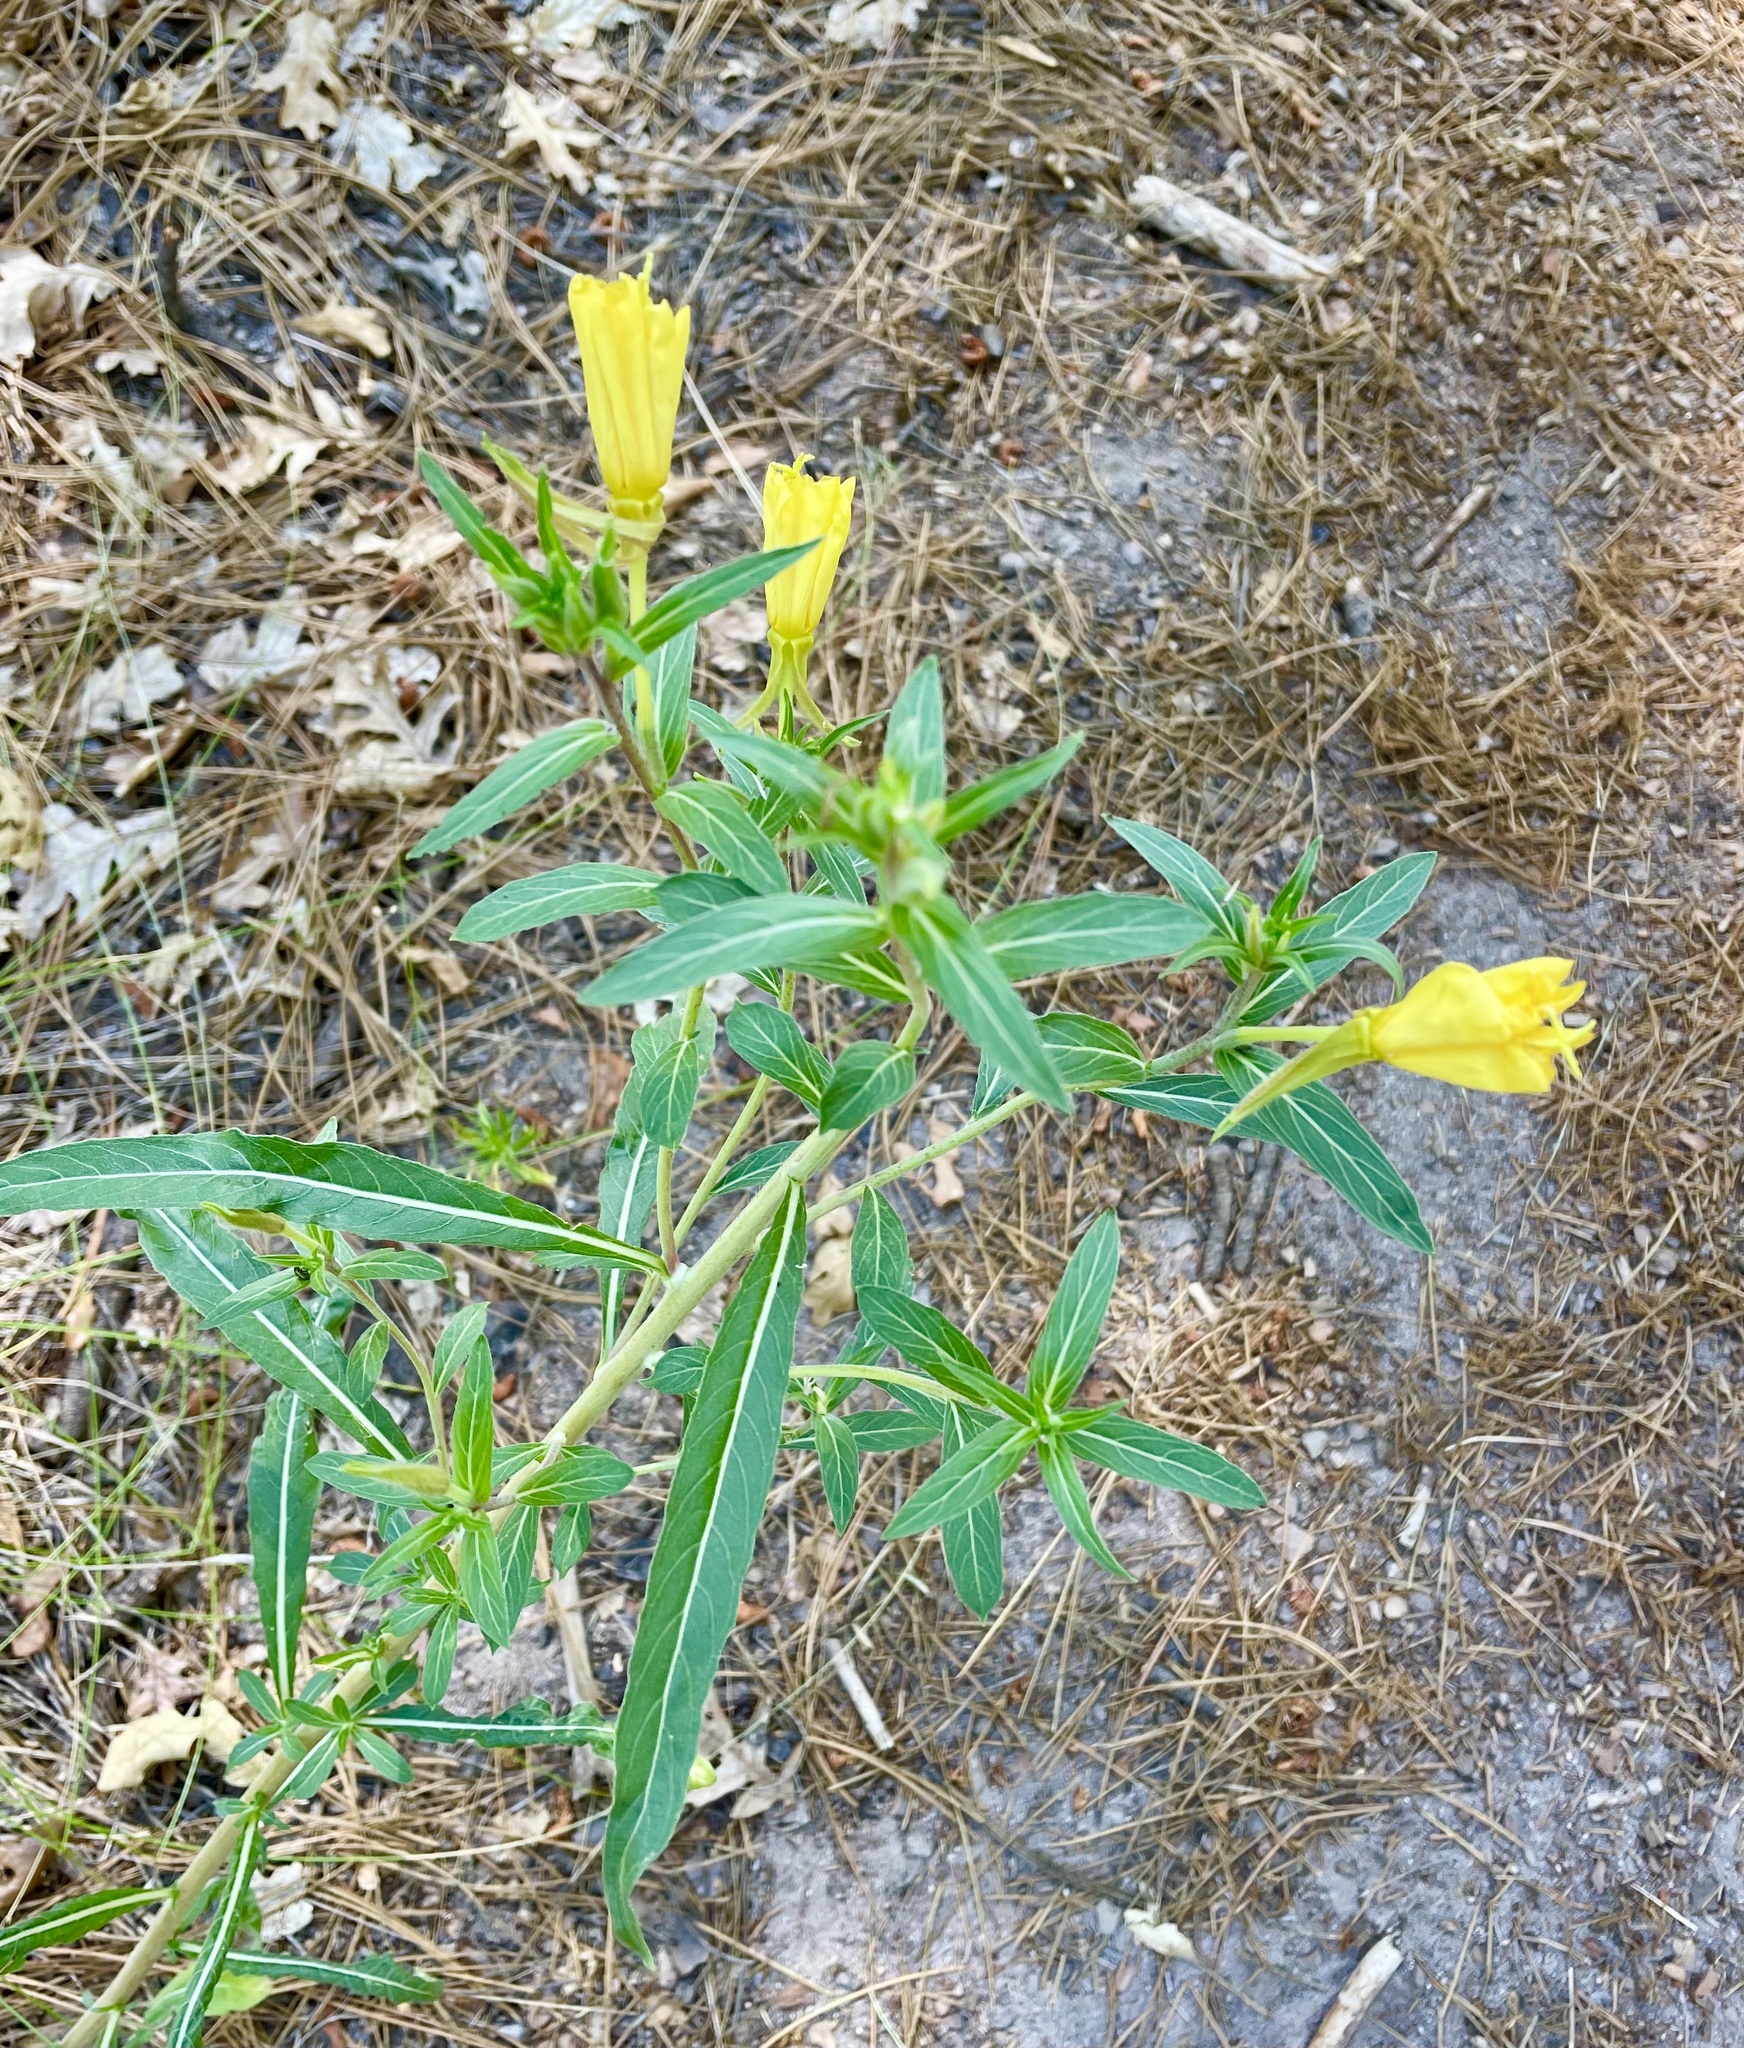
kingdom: Plantae
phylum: Tracheophyta
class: Magnoliopsida
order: Myrtales
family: Onagraceae
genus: Oenothera
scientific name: Oenothera elata
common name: Hooker's evening-primrose
